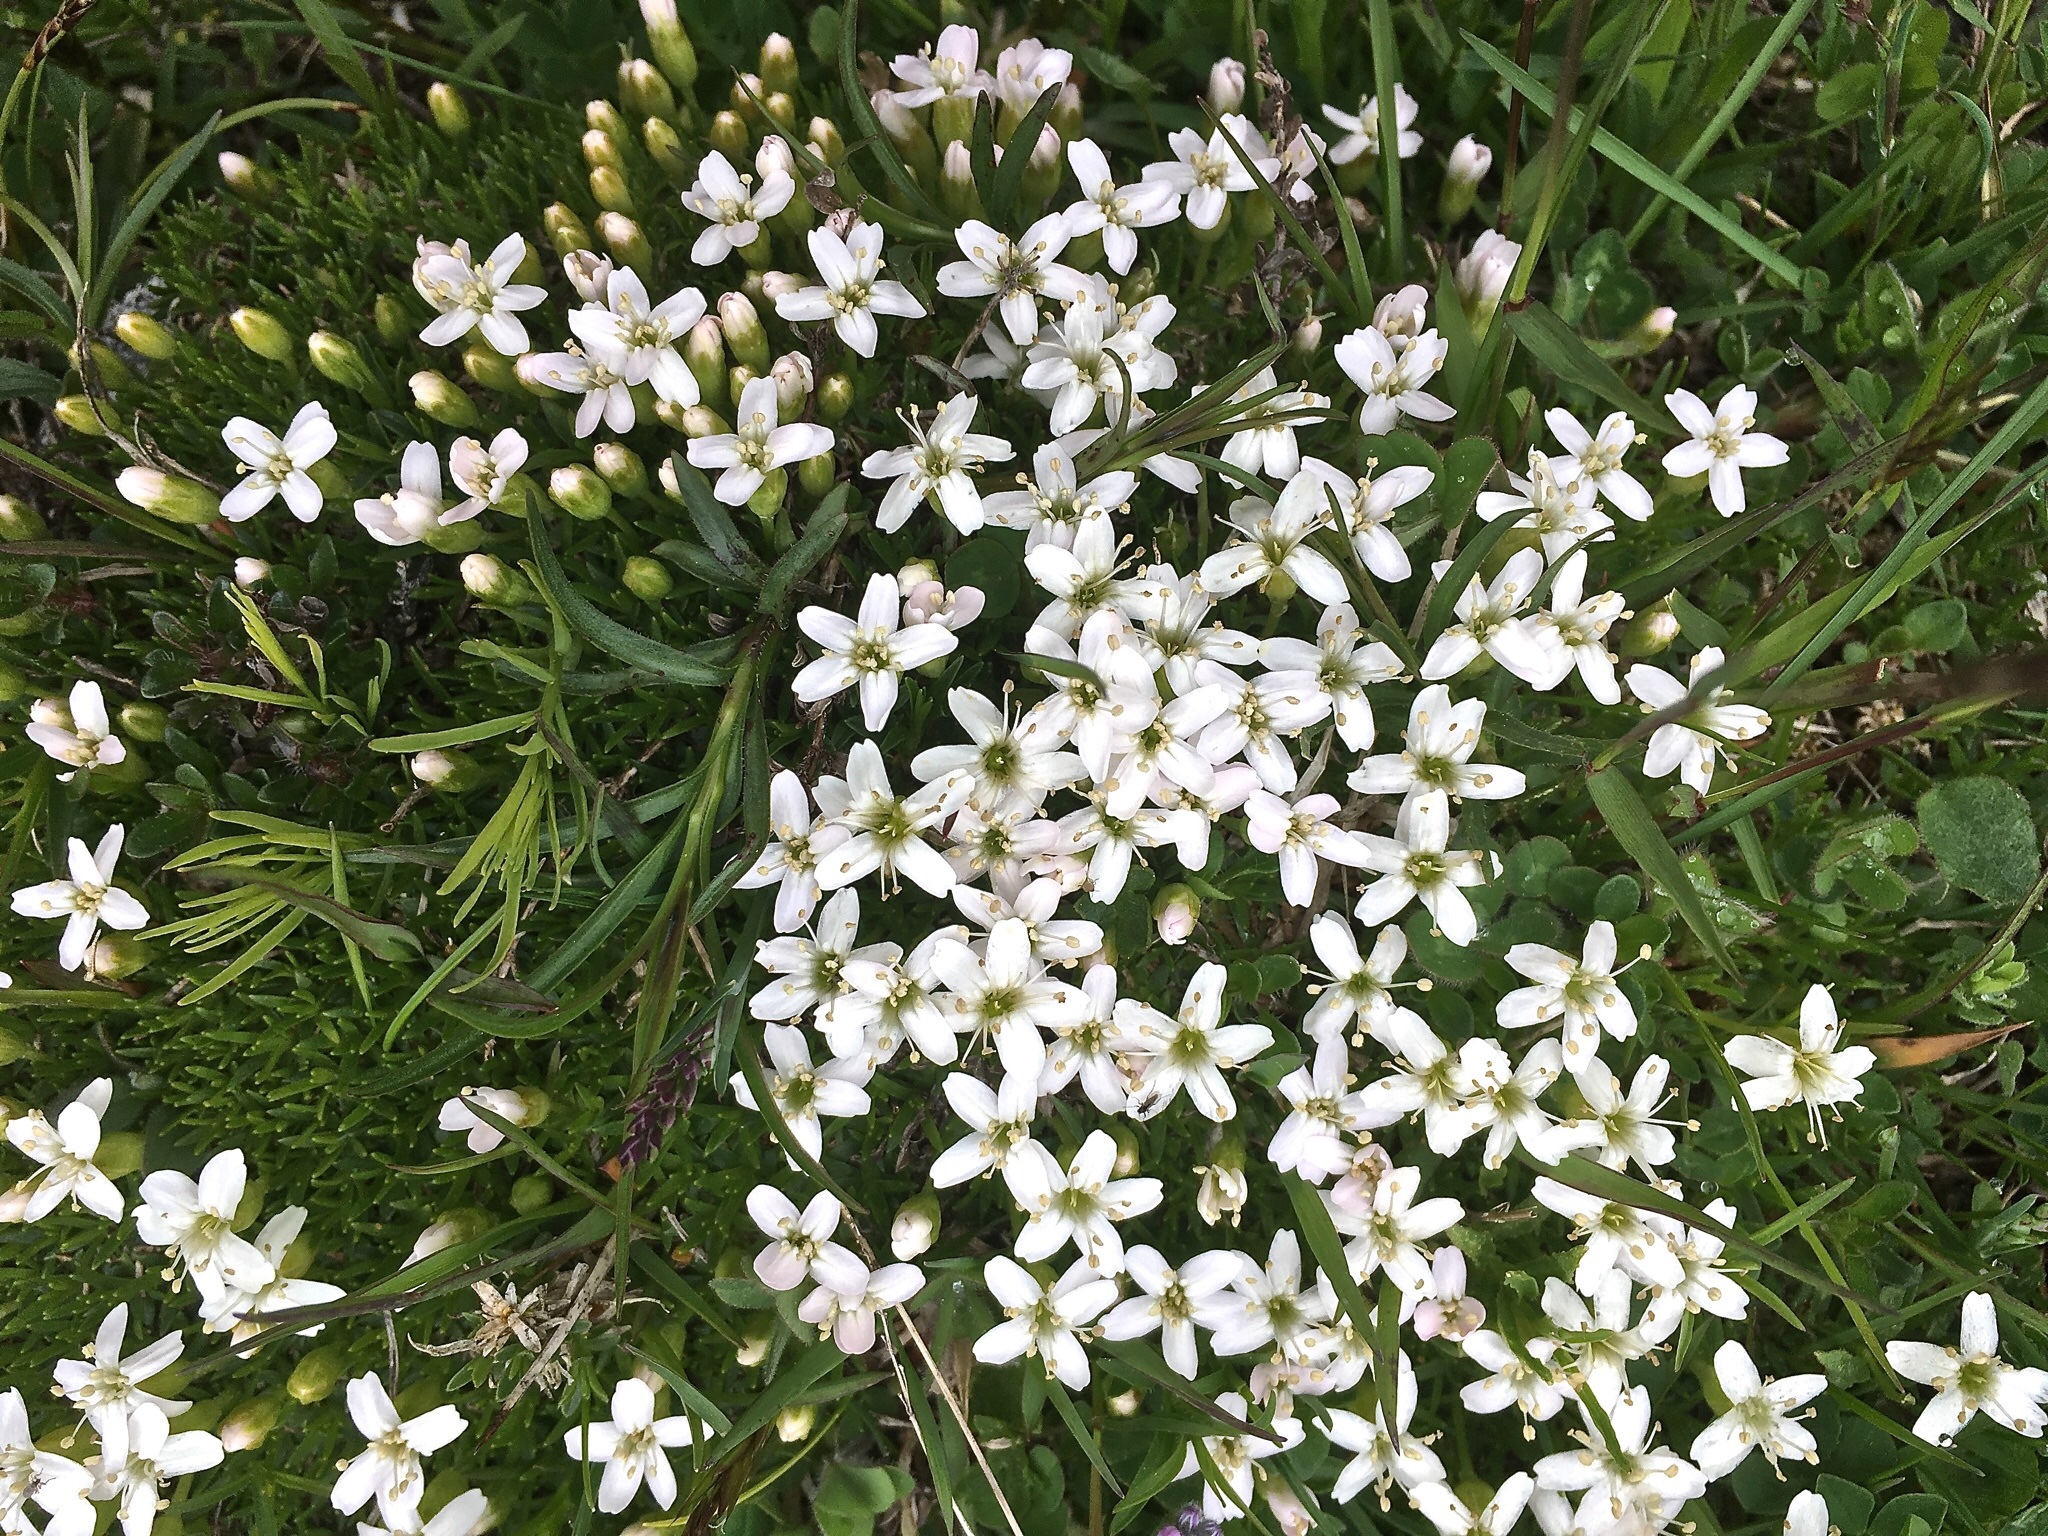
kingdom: Plantae
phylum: Tracheophyta
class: Magnoliopsida
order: Caryophyllales
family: Caryophyllaceae
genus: Silene
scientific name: Silene acaulis
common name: Moss campion
